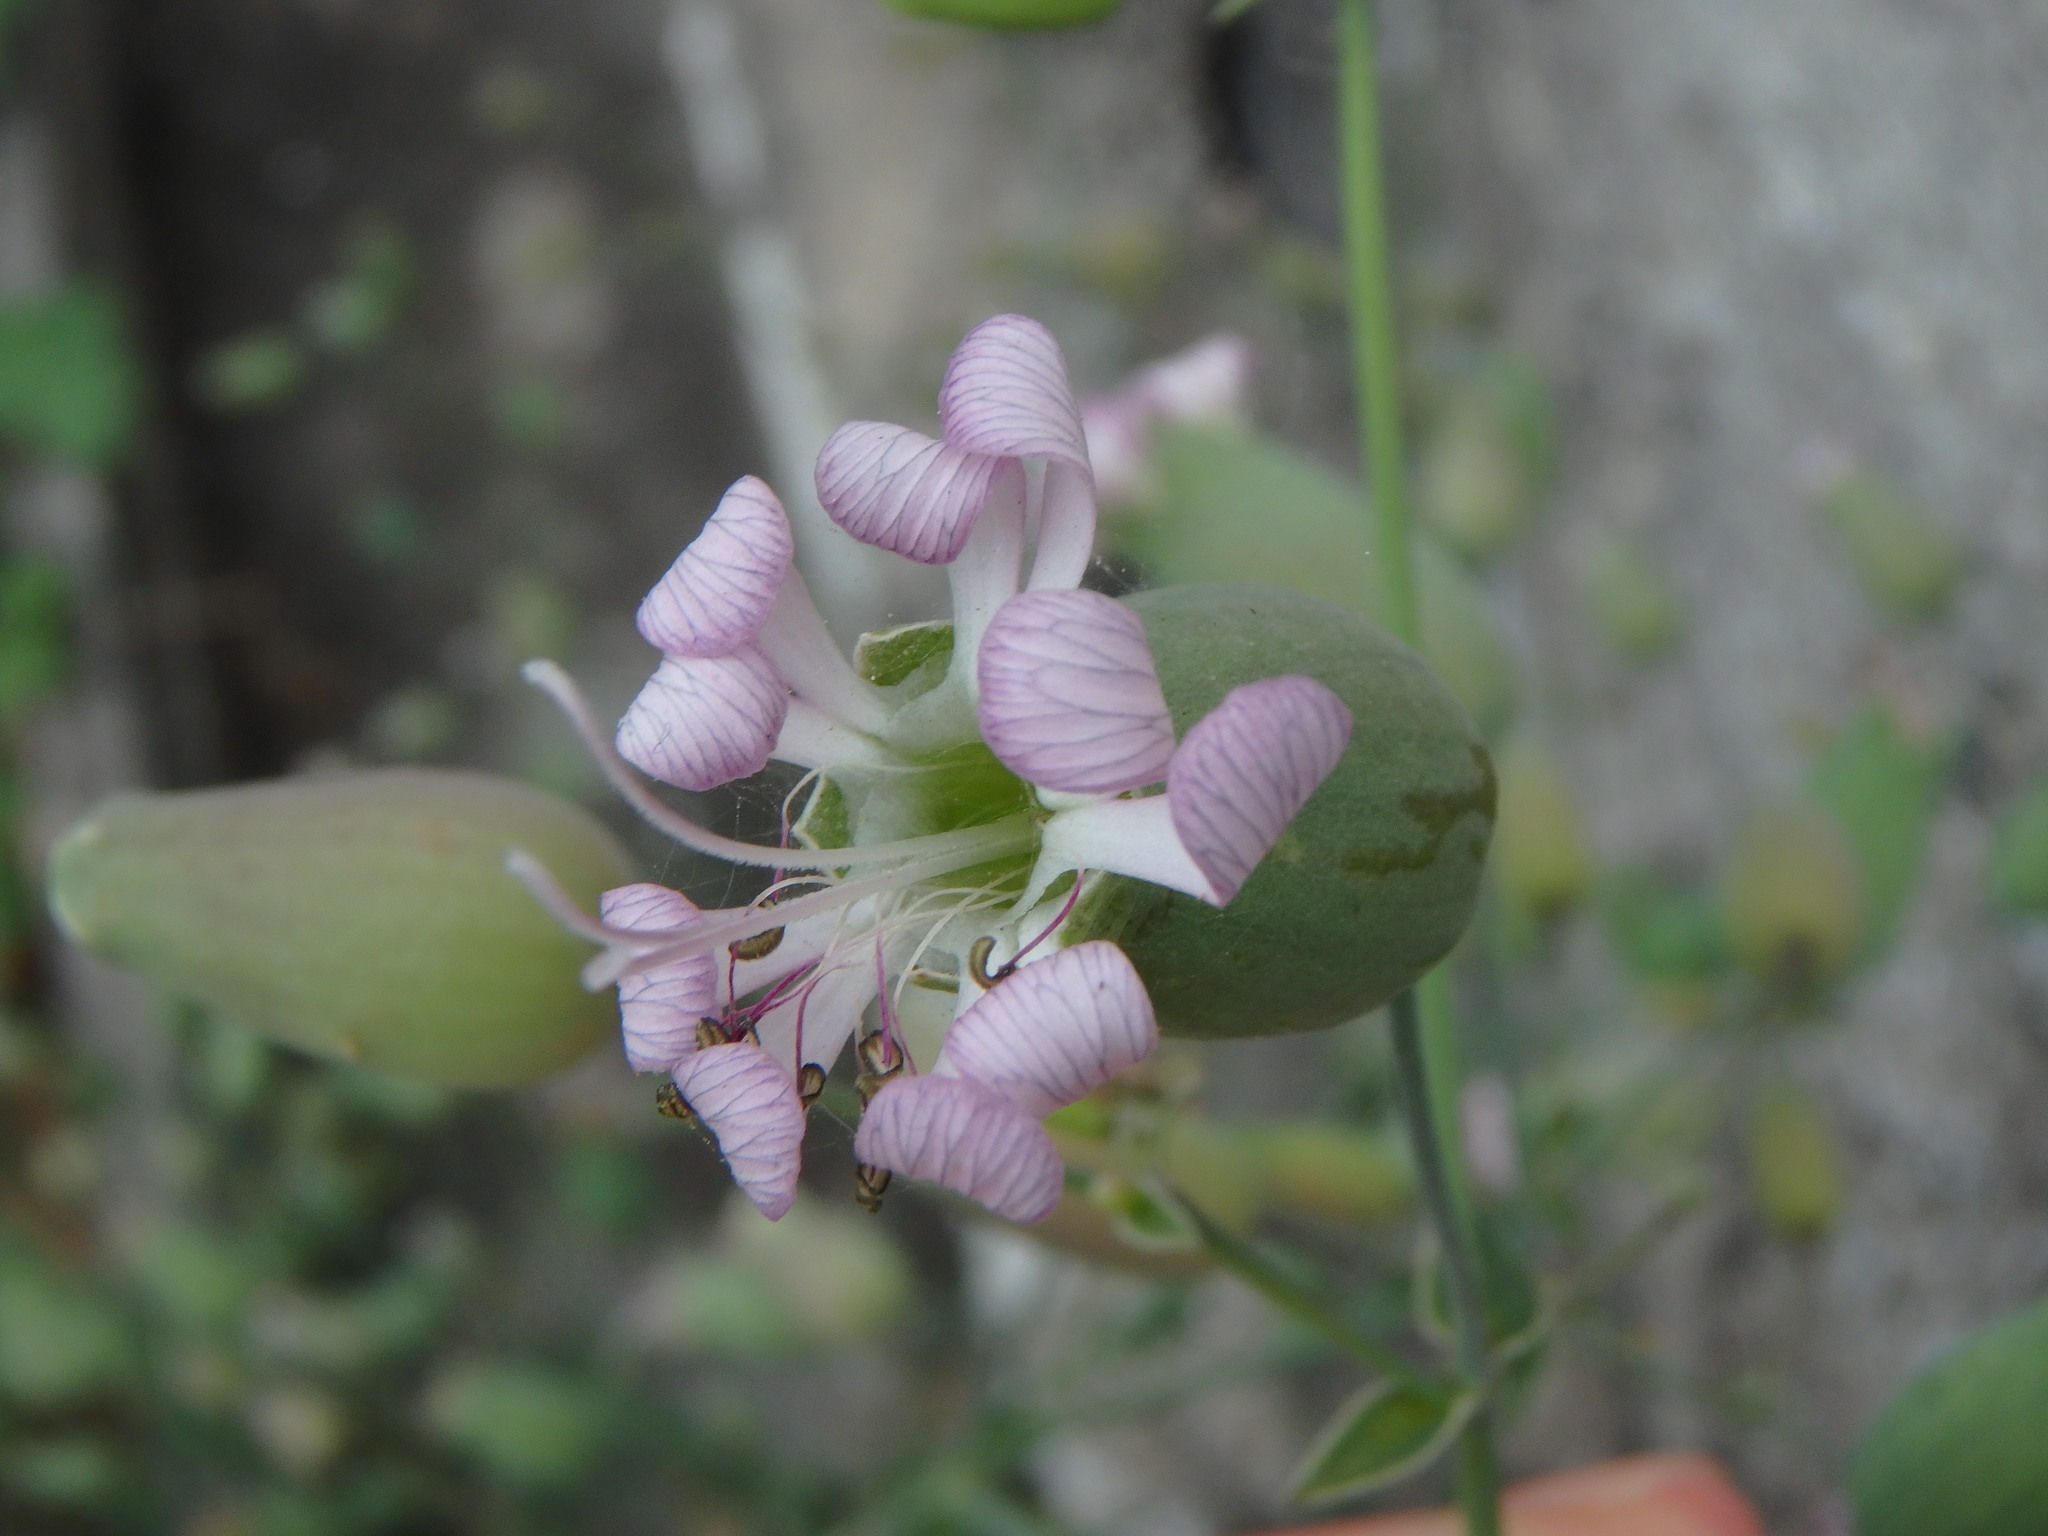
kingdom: Plantae
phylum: Tracheophyta
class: Magnoliopsida
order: Caryophyllales
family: Caryophyllaceae
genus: Silene
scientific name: Silene vulgaris
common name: Bladder campion
